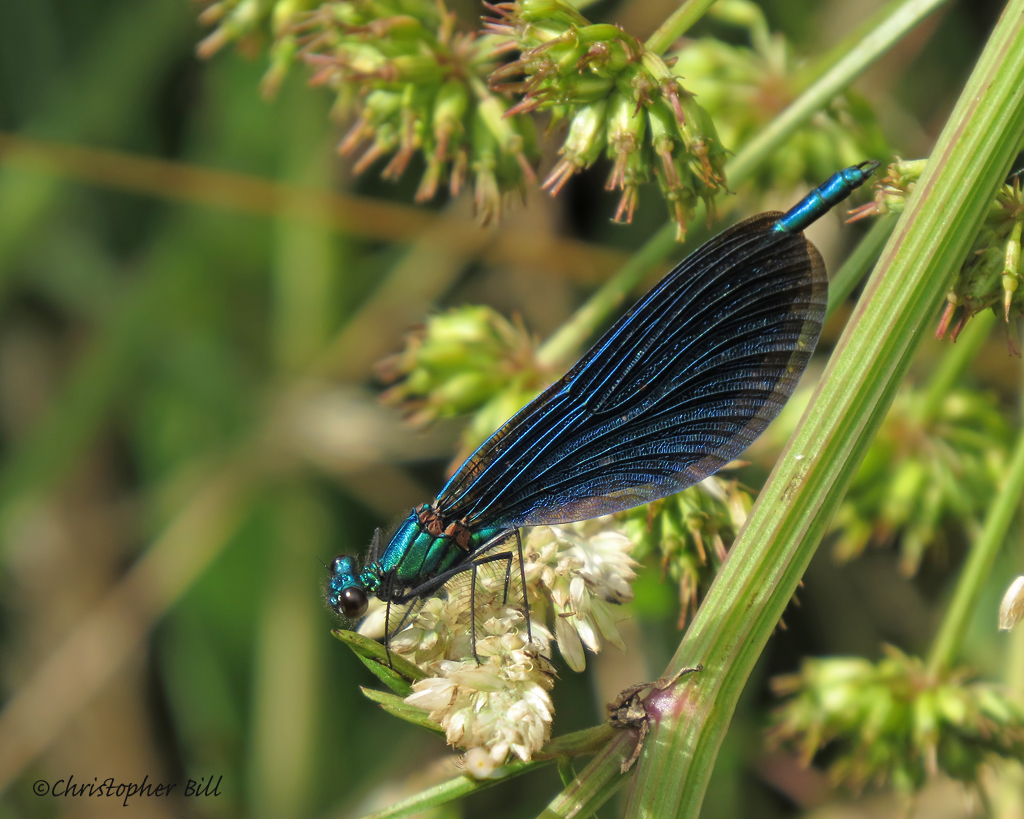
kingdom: Animalia
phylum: Arthropoda
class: Insecta
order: Odonata
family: Calopterygidae
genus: Calopteryx
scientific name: Calopteryx virgo
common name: Beautiful demoiselle
